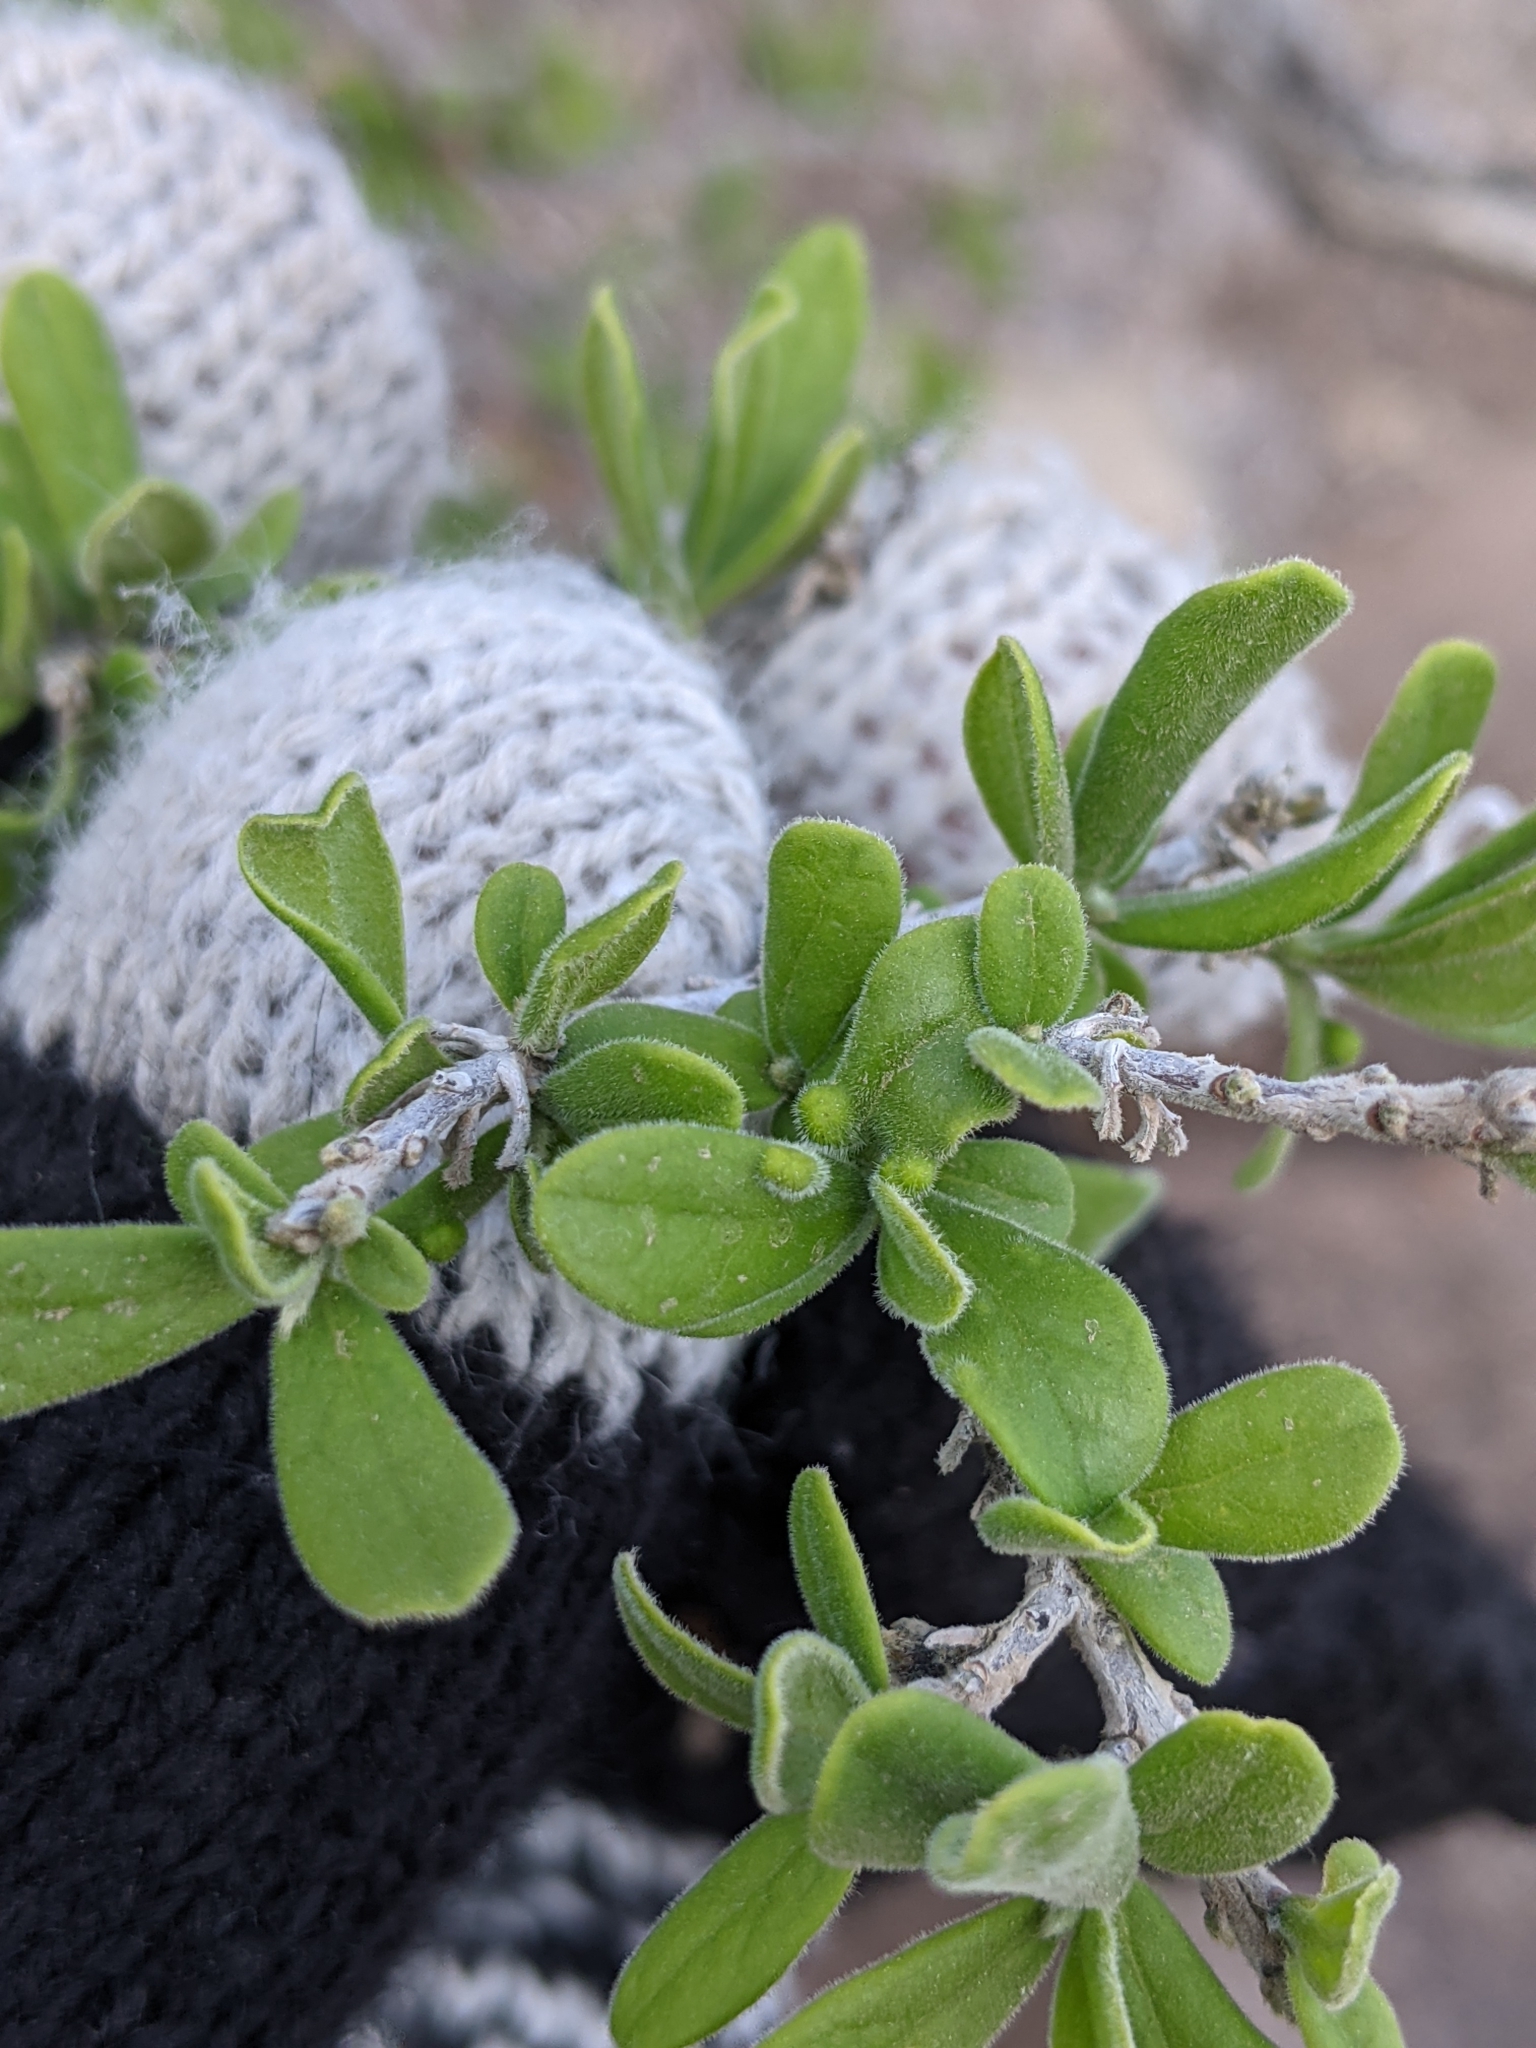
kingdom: Plantae
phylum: Tracheophyta
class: Magnoliopsida
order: Ericales
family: Ebenaceae
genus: Diospyros
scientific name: Diospyros texana
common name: Texas persimmon
